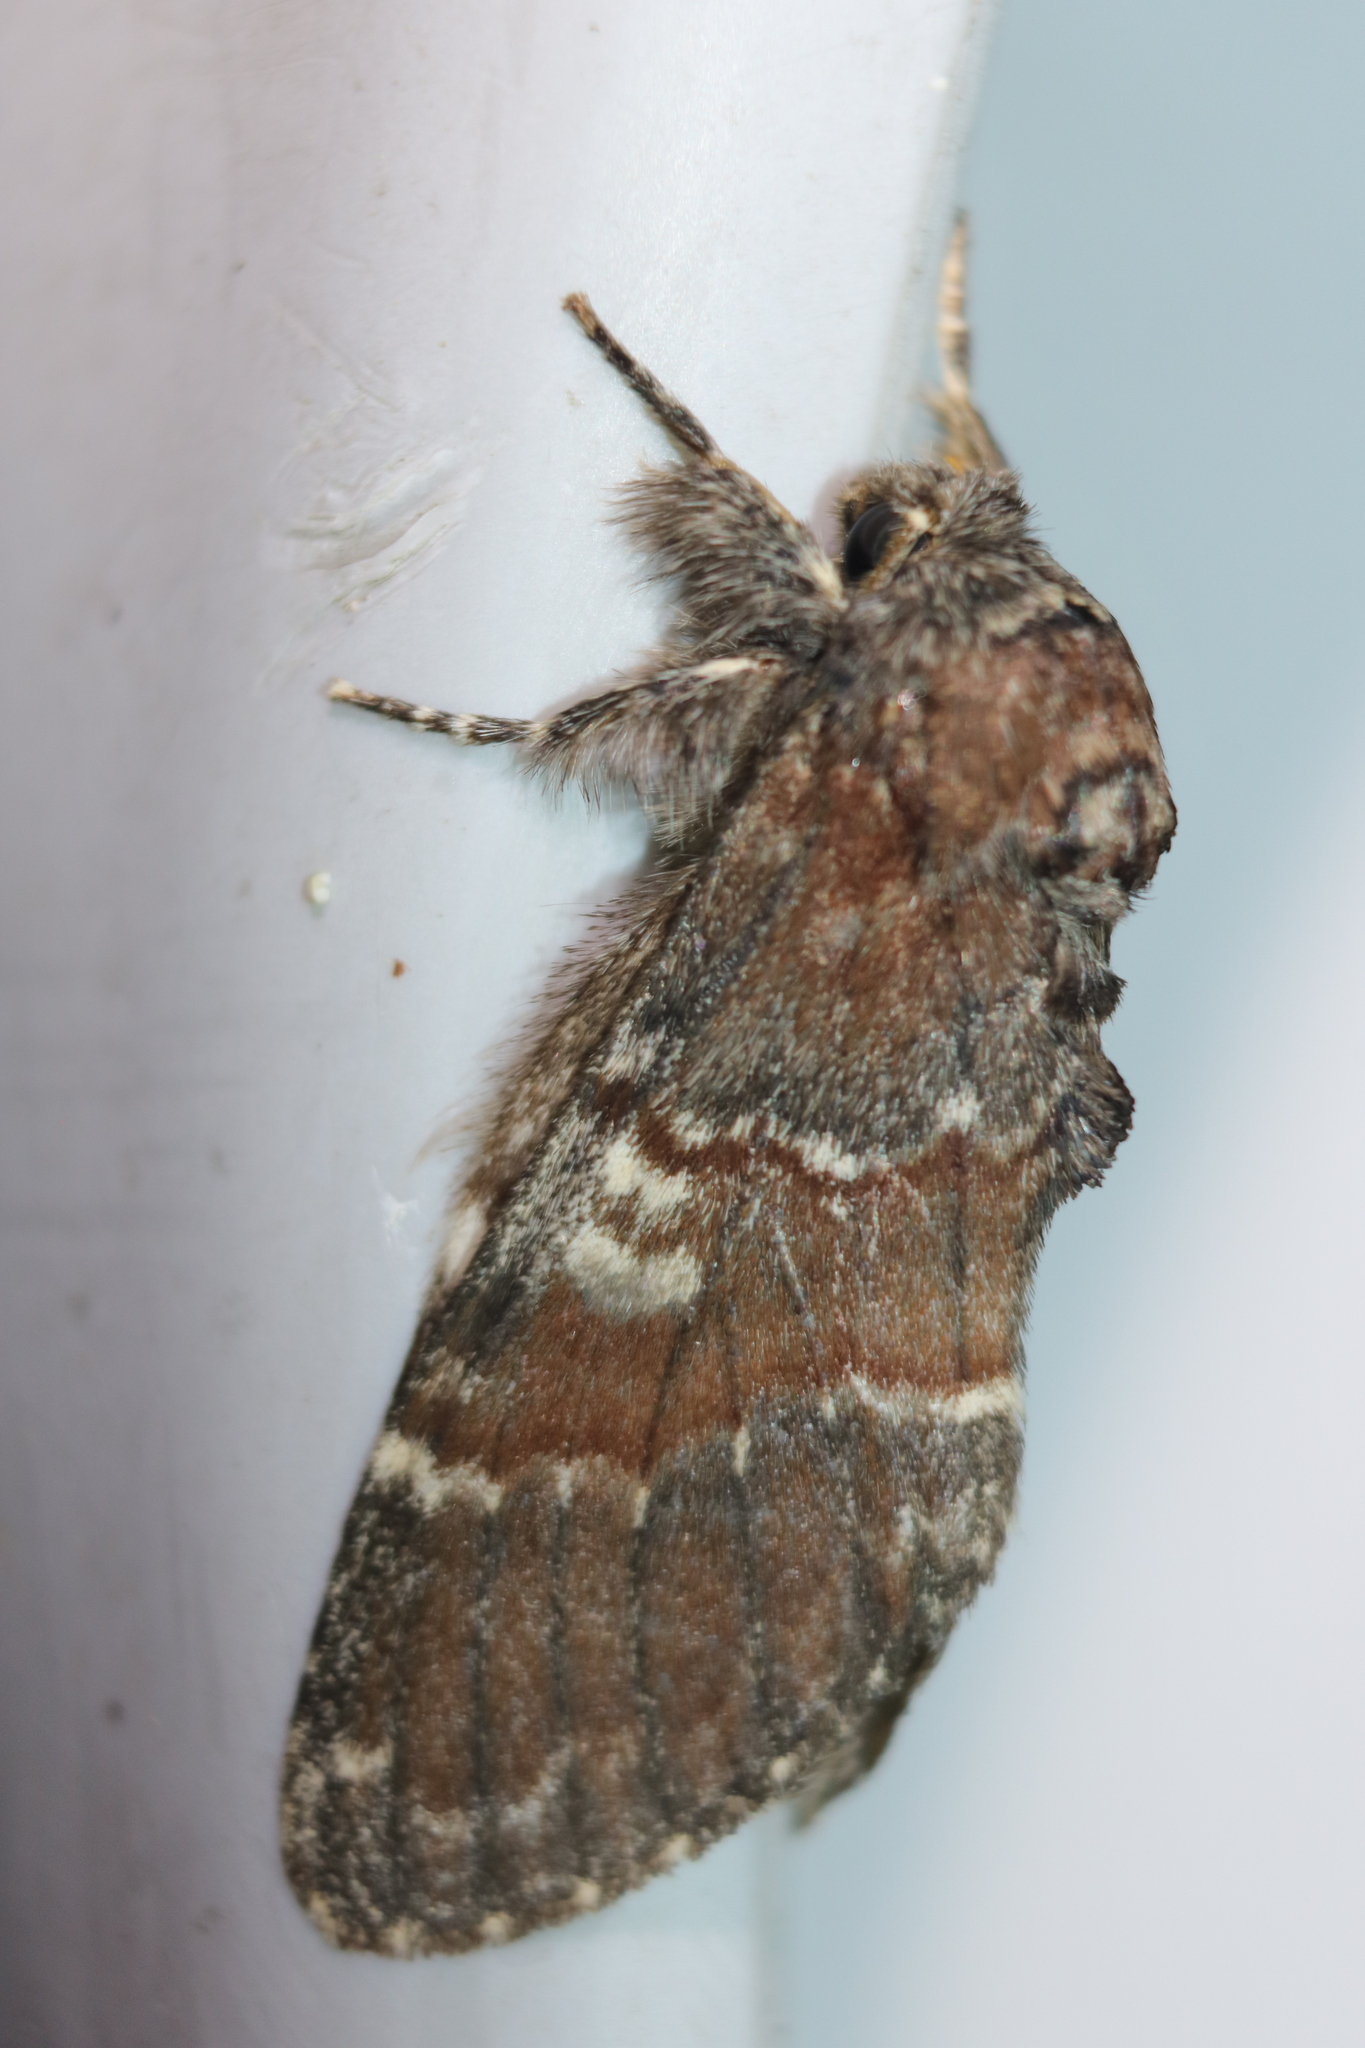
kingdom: Animalia
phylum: Arthropoda
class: Insecta
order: Lepidoptera
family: Notodontidae
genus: Peridea
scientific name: Peridea ferruginea
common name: Chocolate prominent
